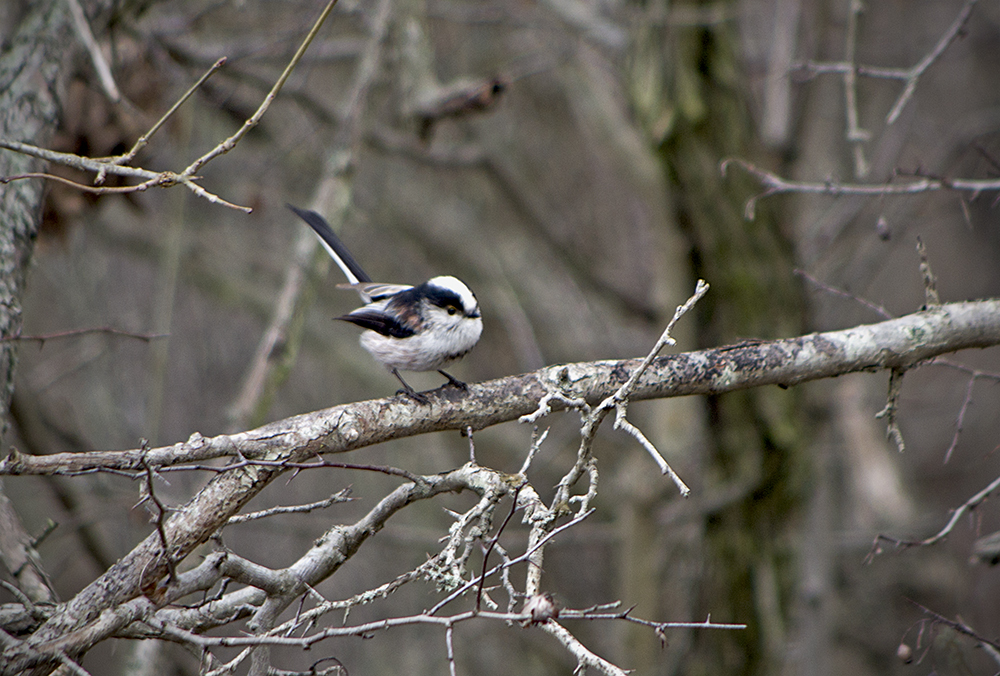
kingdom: Animalia
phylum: Chordata
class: Aves
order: Passeriformes
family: Aegithalidae
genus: Aegithalos
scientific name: Aegithalos caudatus
